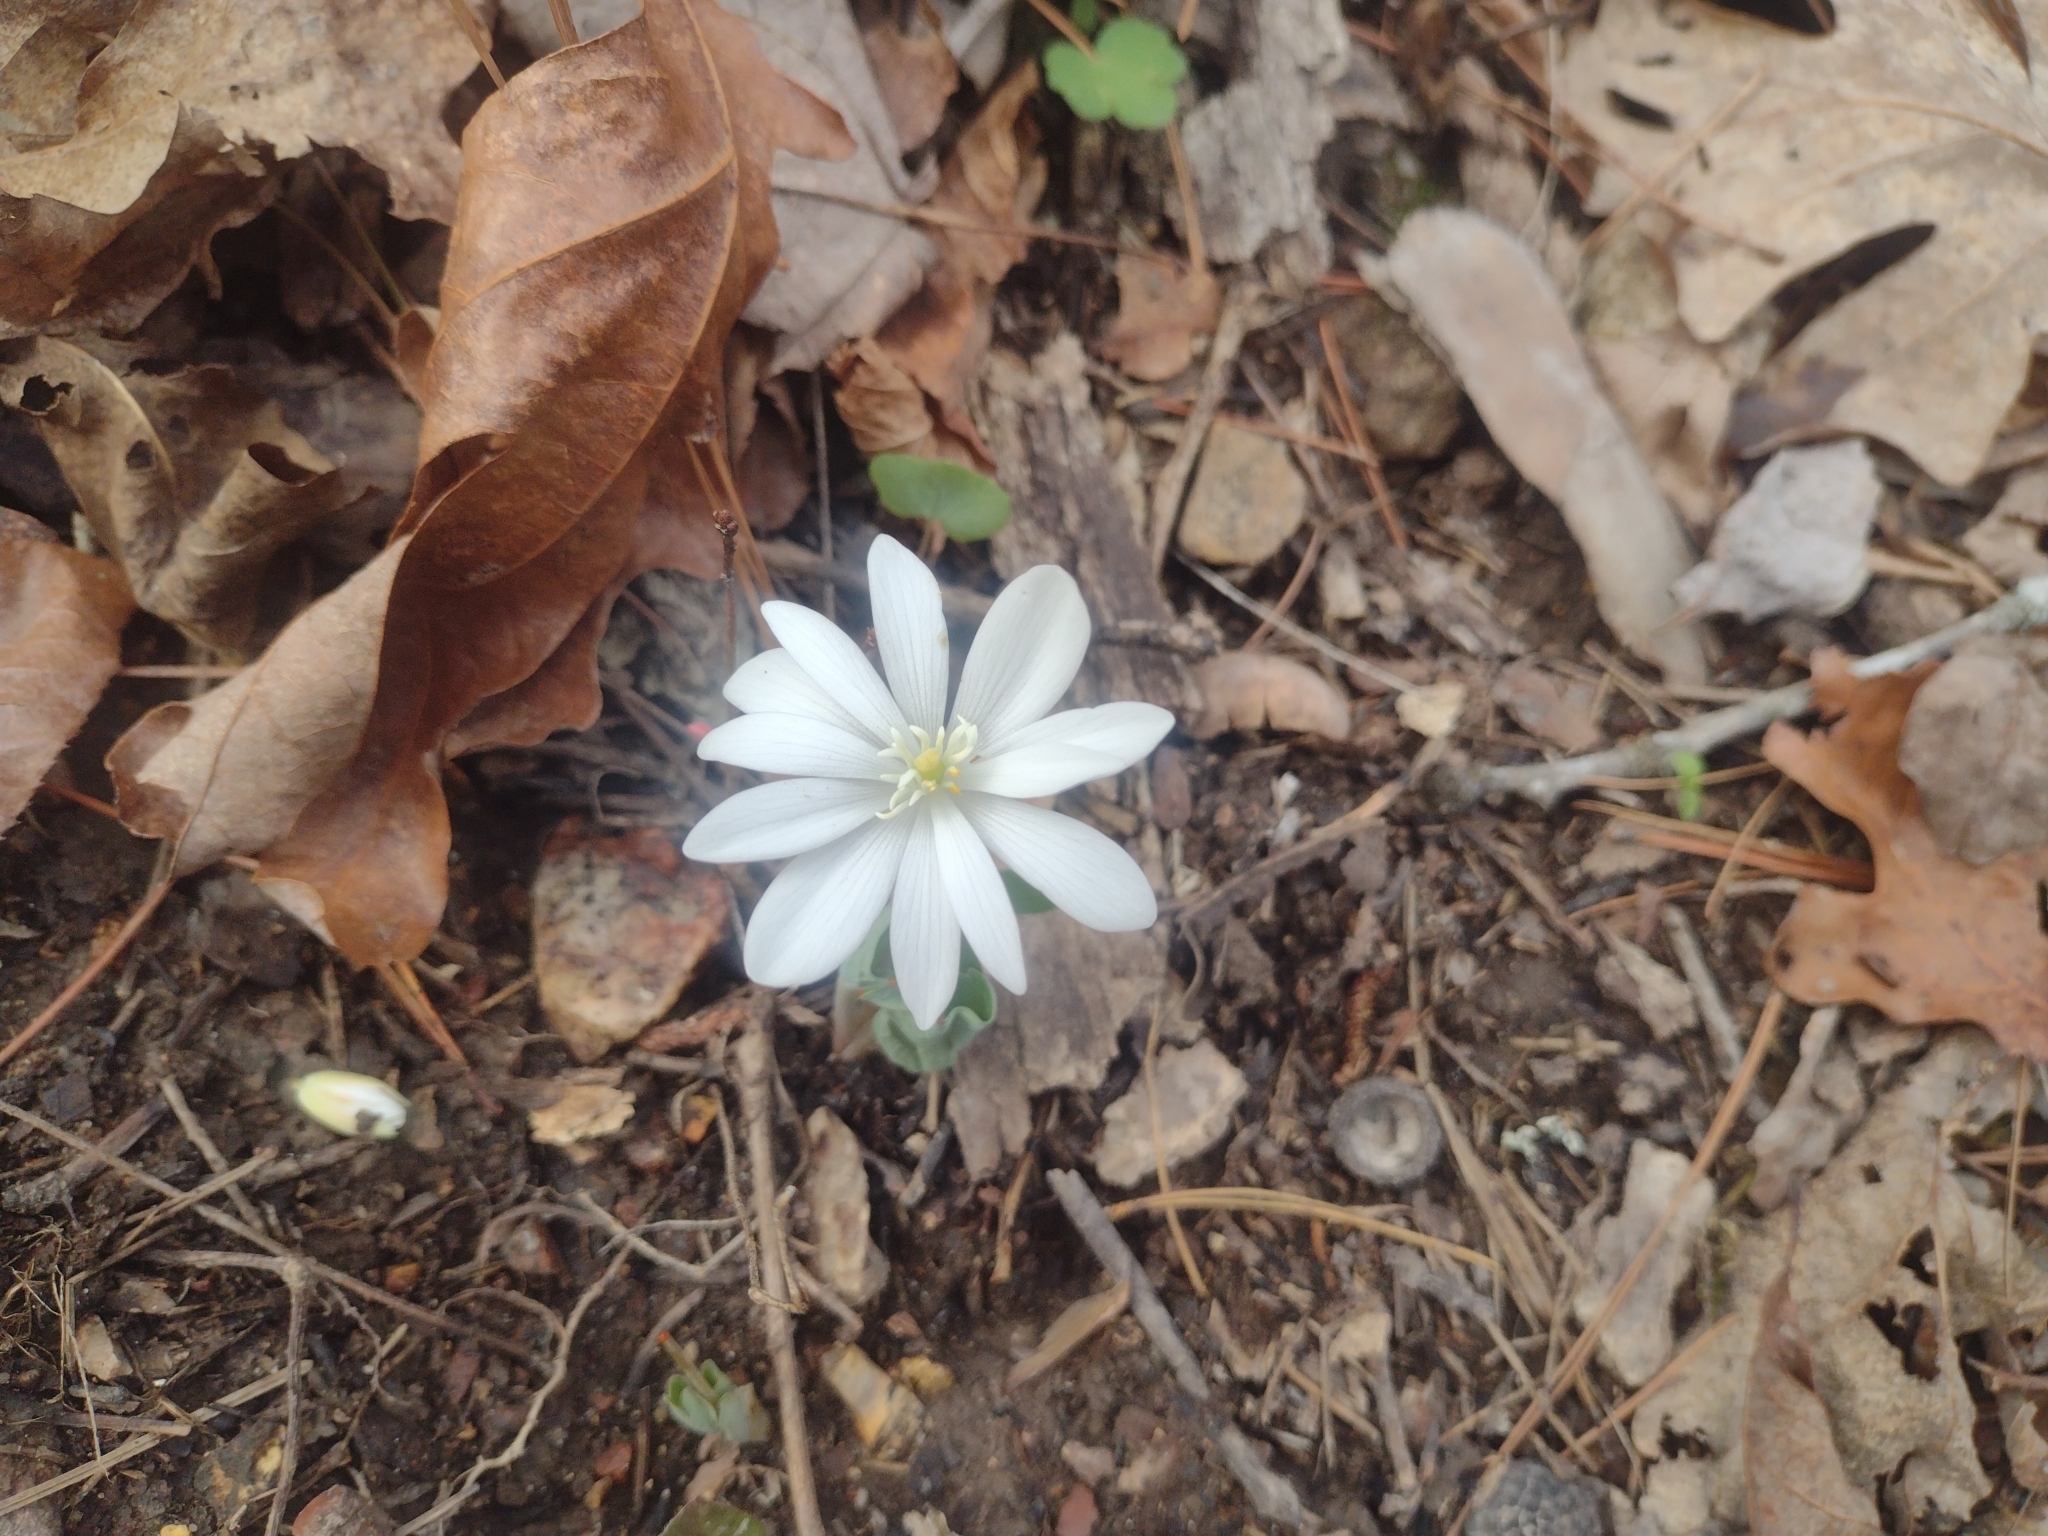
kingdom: Plantae
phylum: Tracheophyta
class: Magnoliopsida
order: Ranunculales
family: Papaveraceae
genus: Sanguinaria
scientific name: Sanguinaria canadensis
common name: Bloodroot
